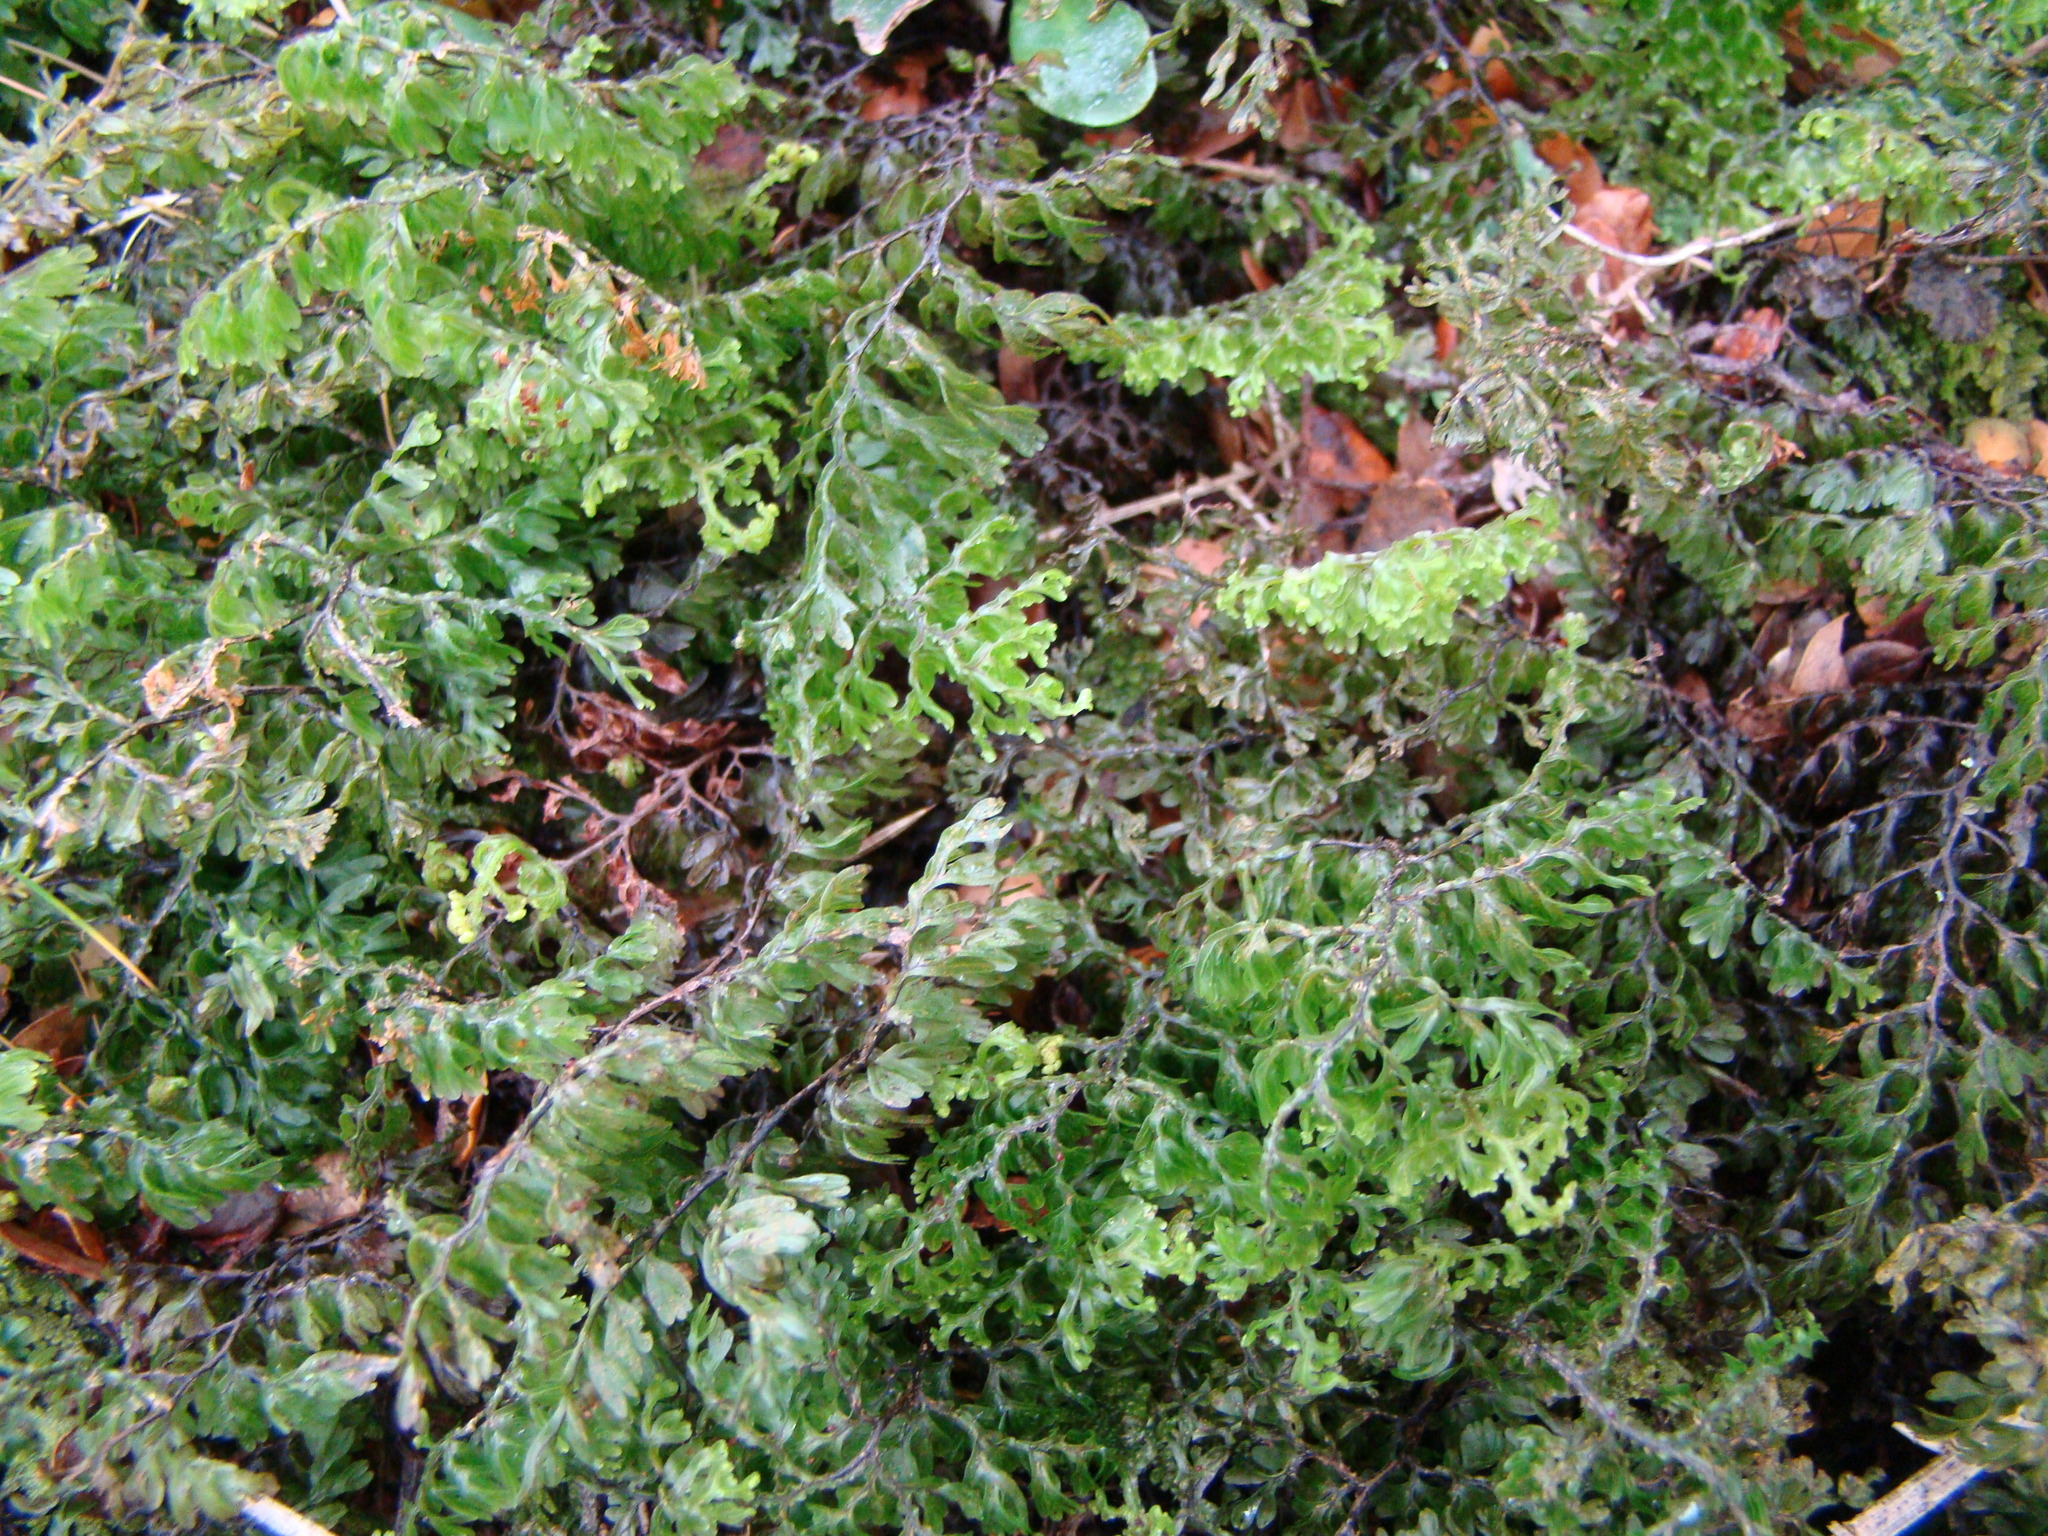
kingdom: Plantae
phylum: Tracheophyta
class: Polypodiopsida
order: Hymenophyllales
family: Hymenophyllaceae
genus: Hymenophyllum
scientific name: Hymenophyllum sanguinolentum
